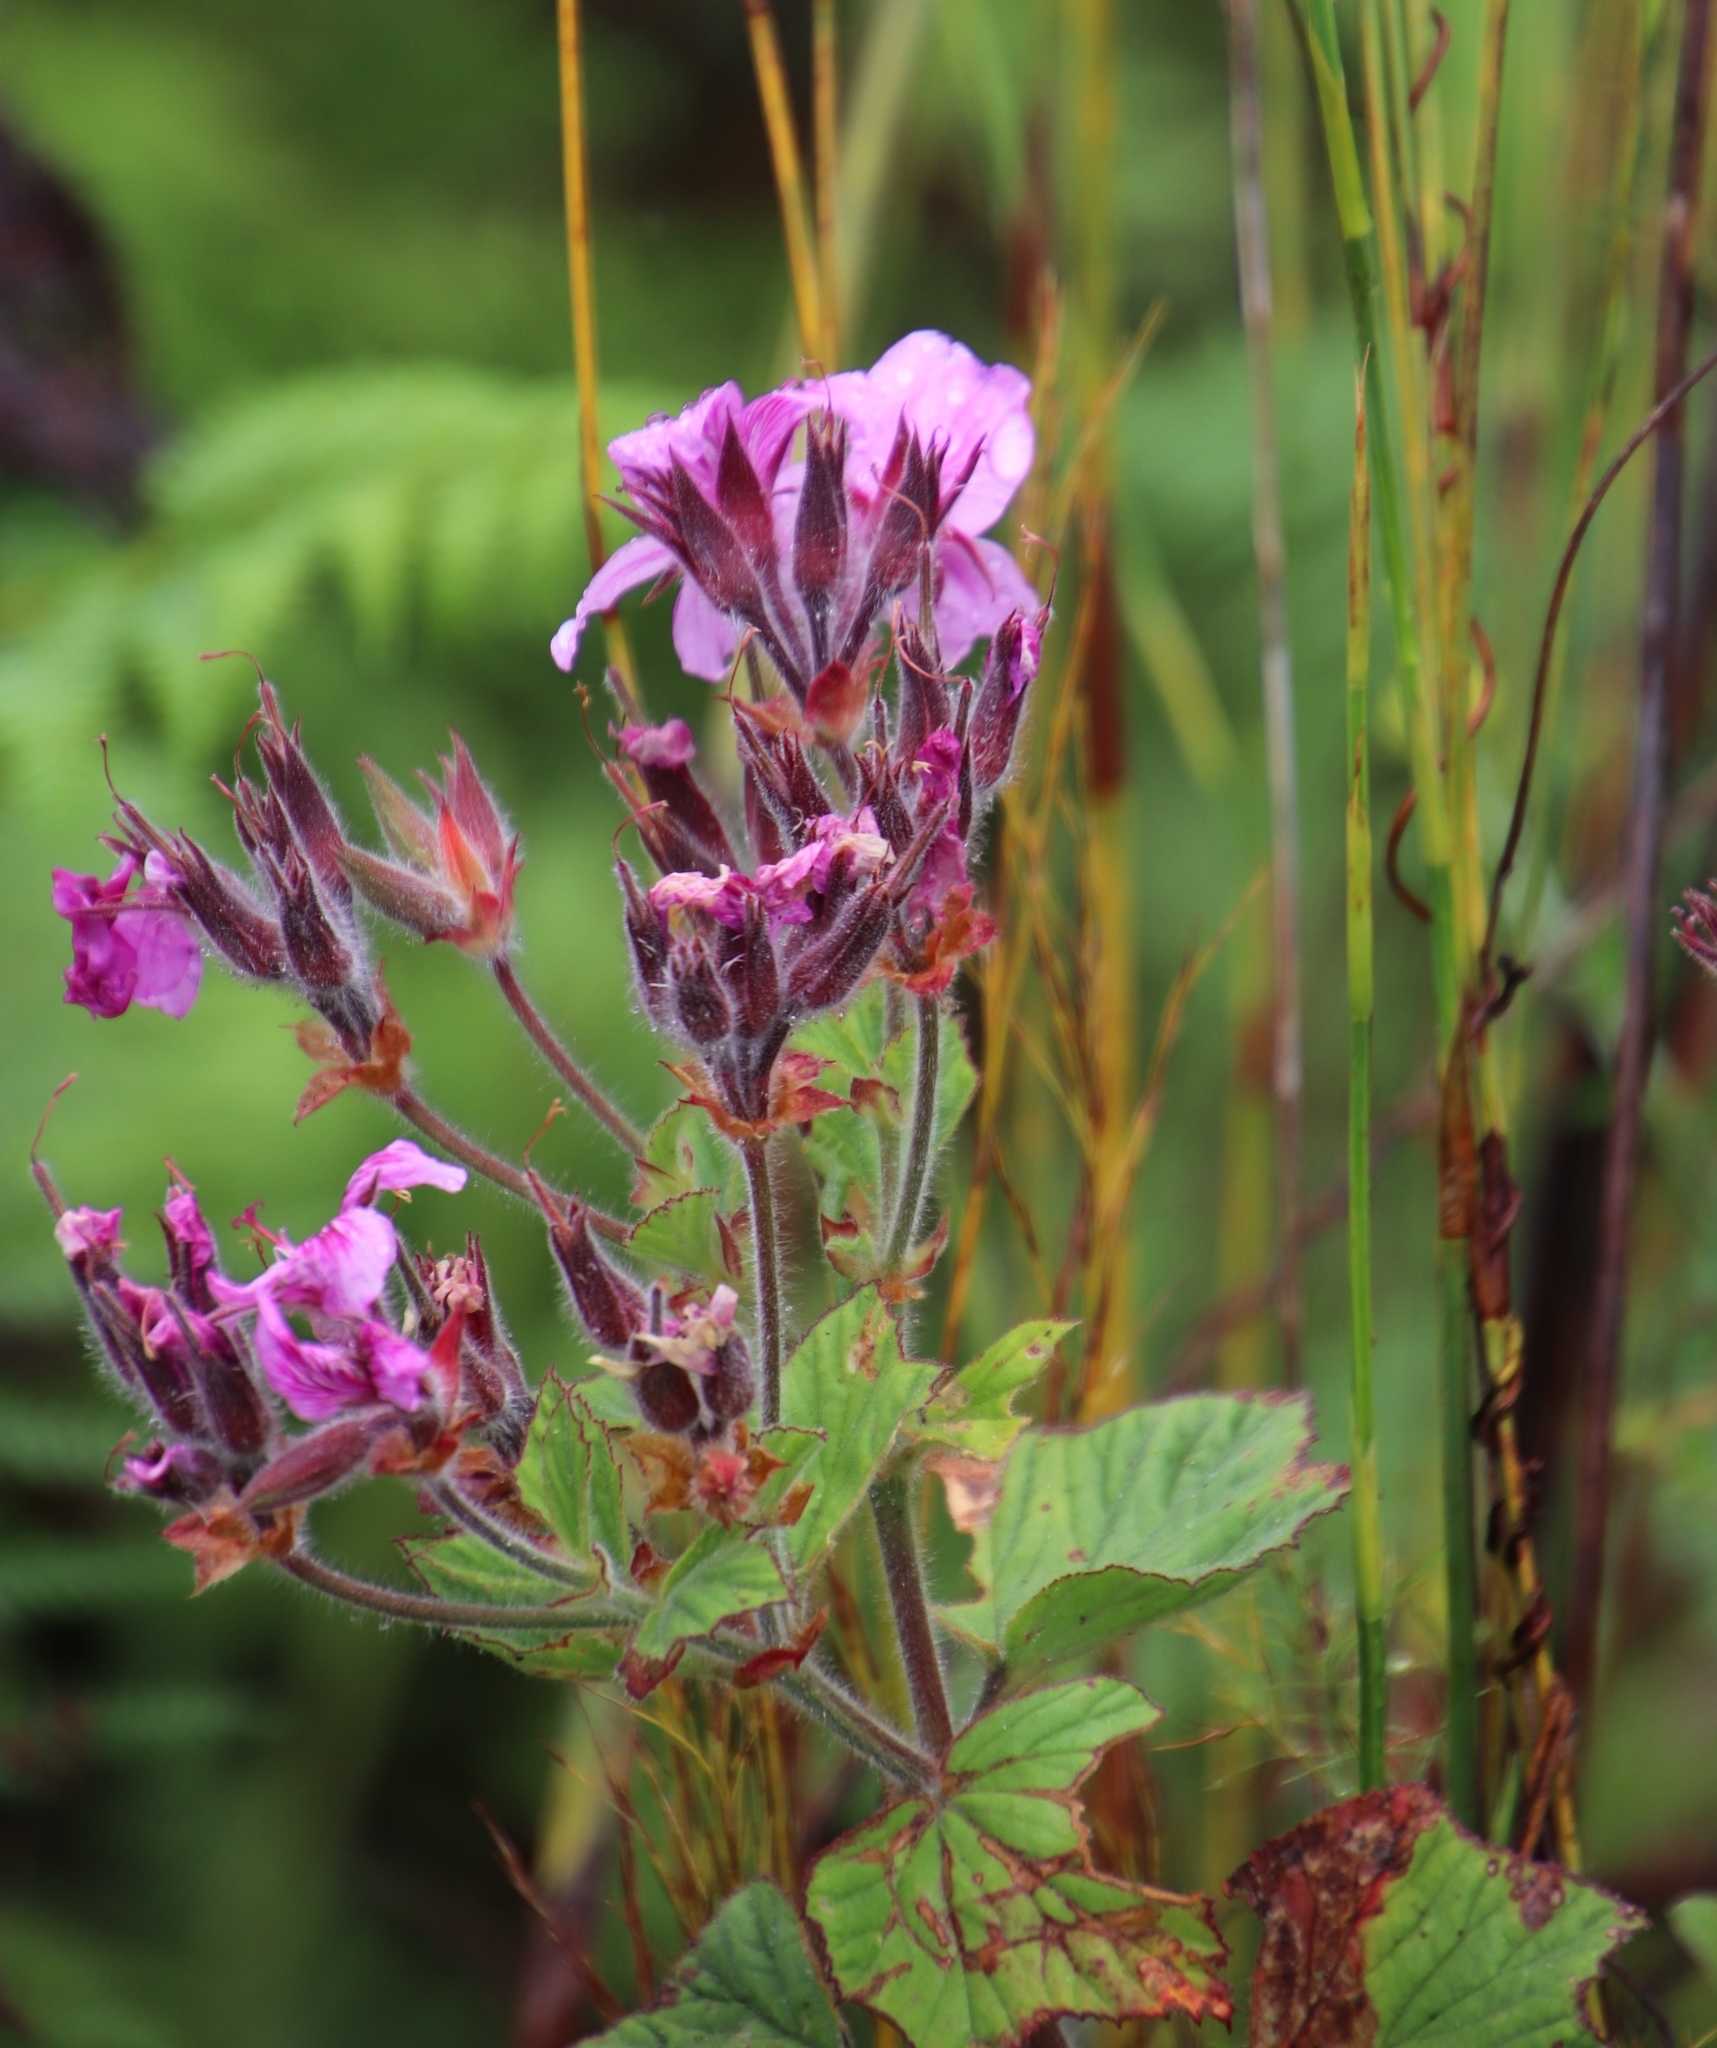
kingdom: Plantae
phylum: Tracheophyta
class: Magnoliopsida
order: Geraniales
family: Geraniaceae
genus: Pelargonium
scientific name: Pelargonium cucullatum
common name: Tree pelargonium
